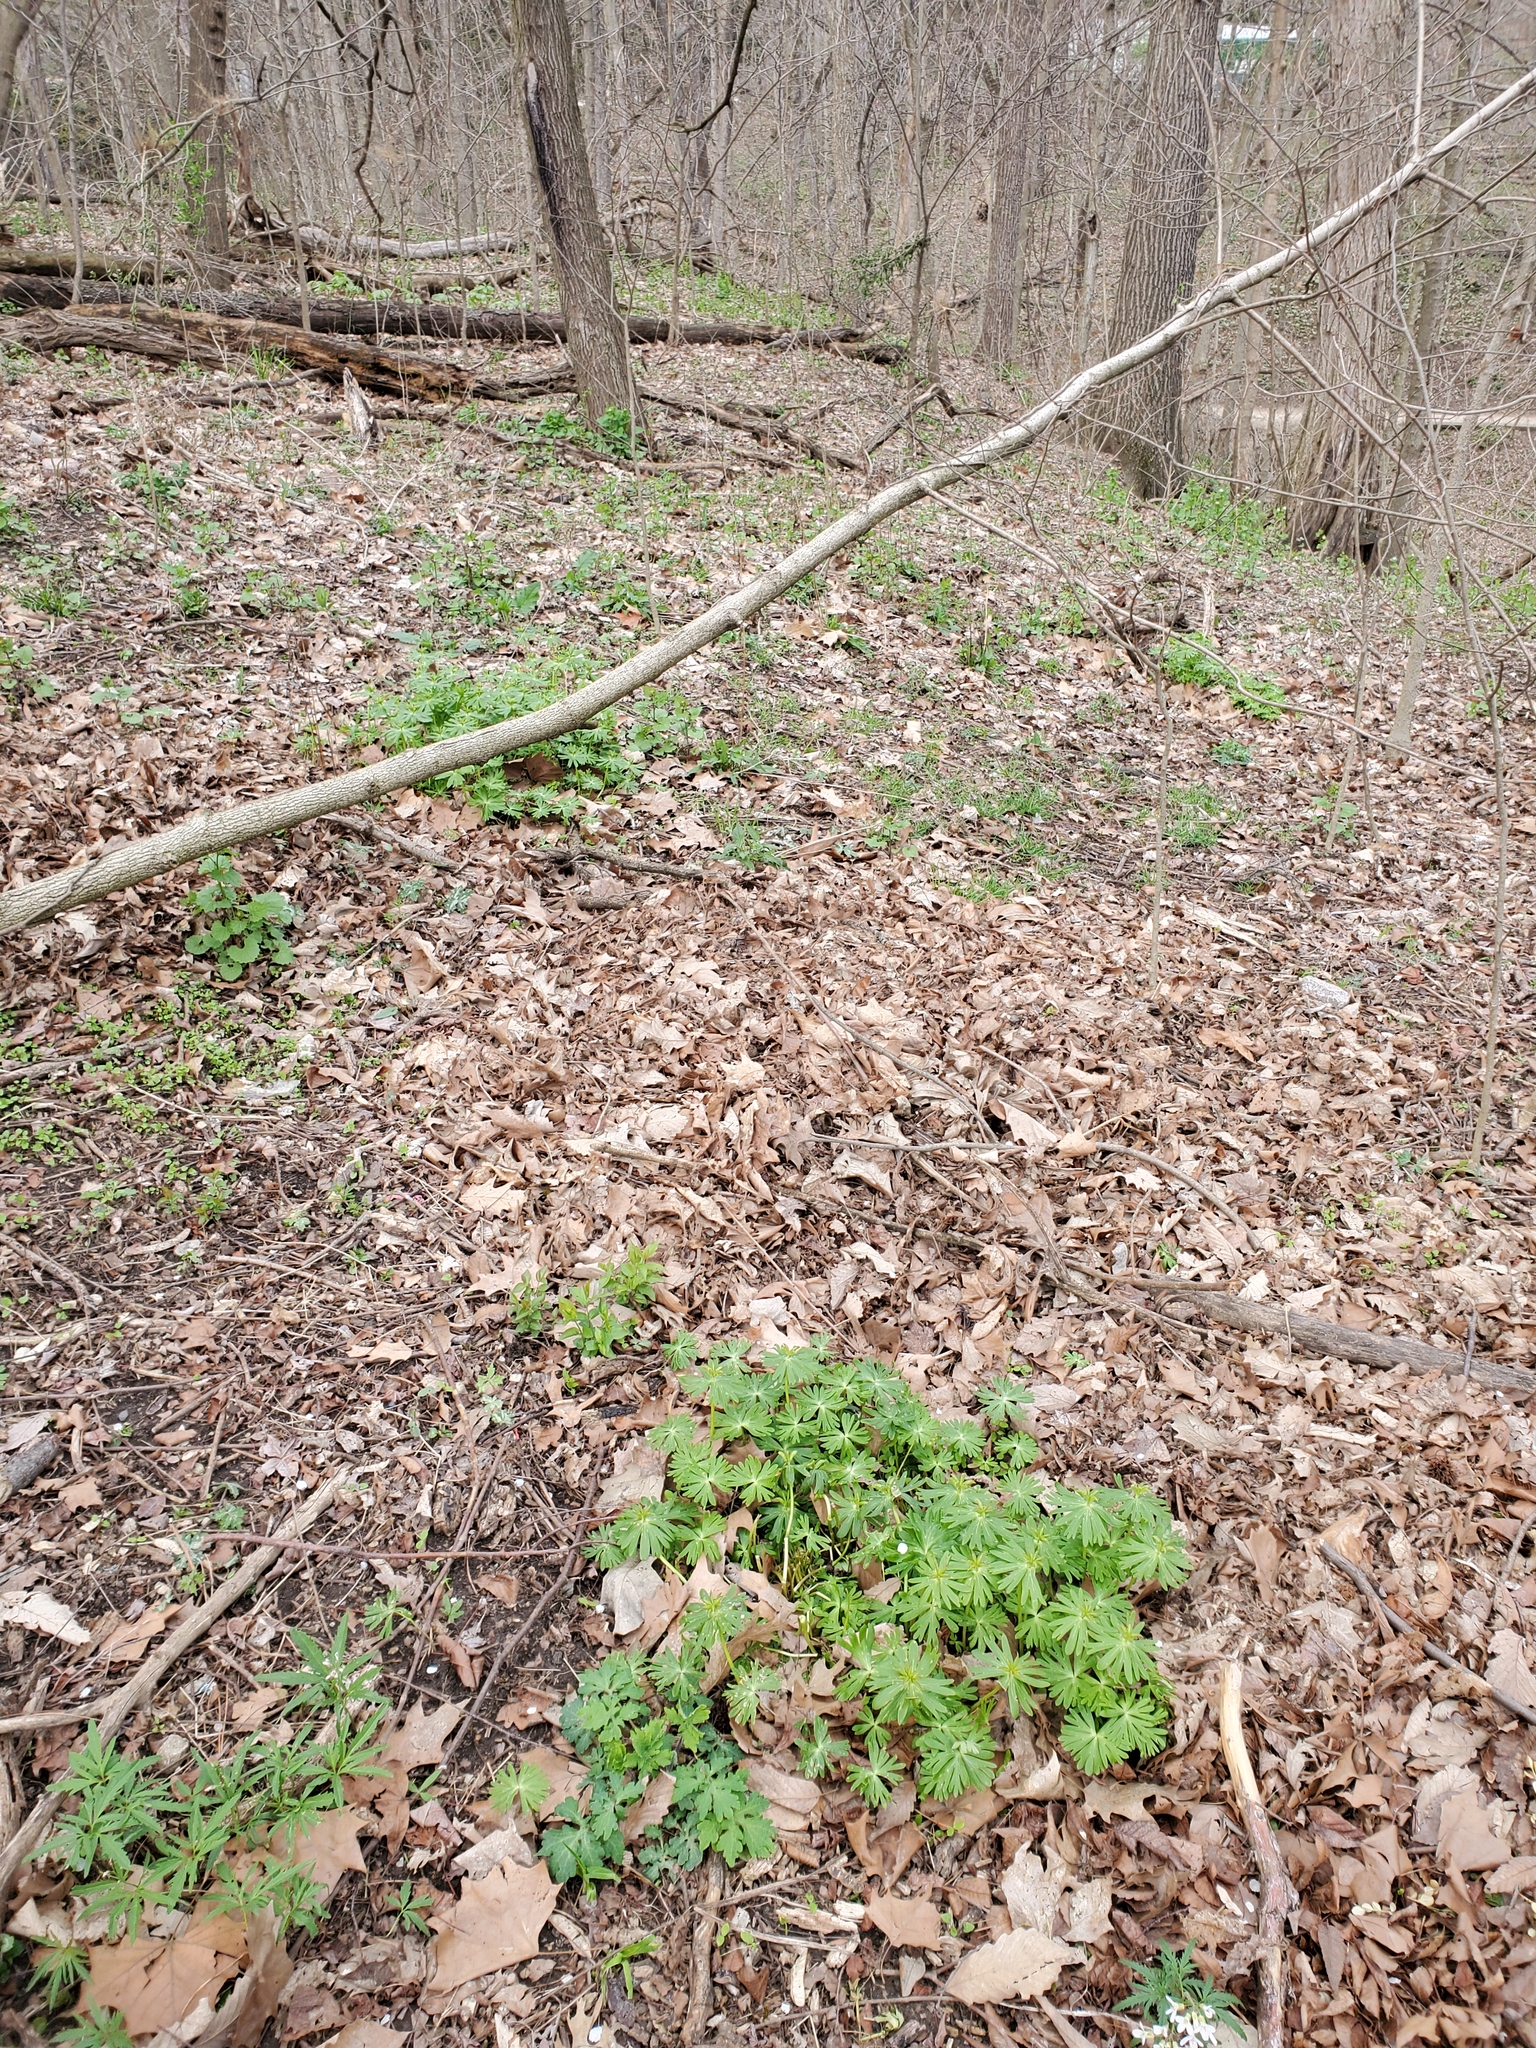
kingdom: Plantae
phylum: Tracheophyta
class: Magnoliopsida
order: Ranunculales
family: Ranunculaceae
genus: Eranthis
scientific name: Eranthis hyemalis
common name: Winter aconite
